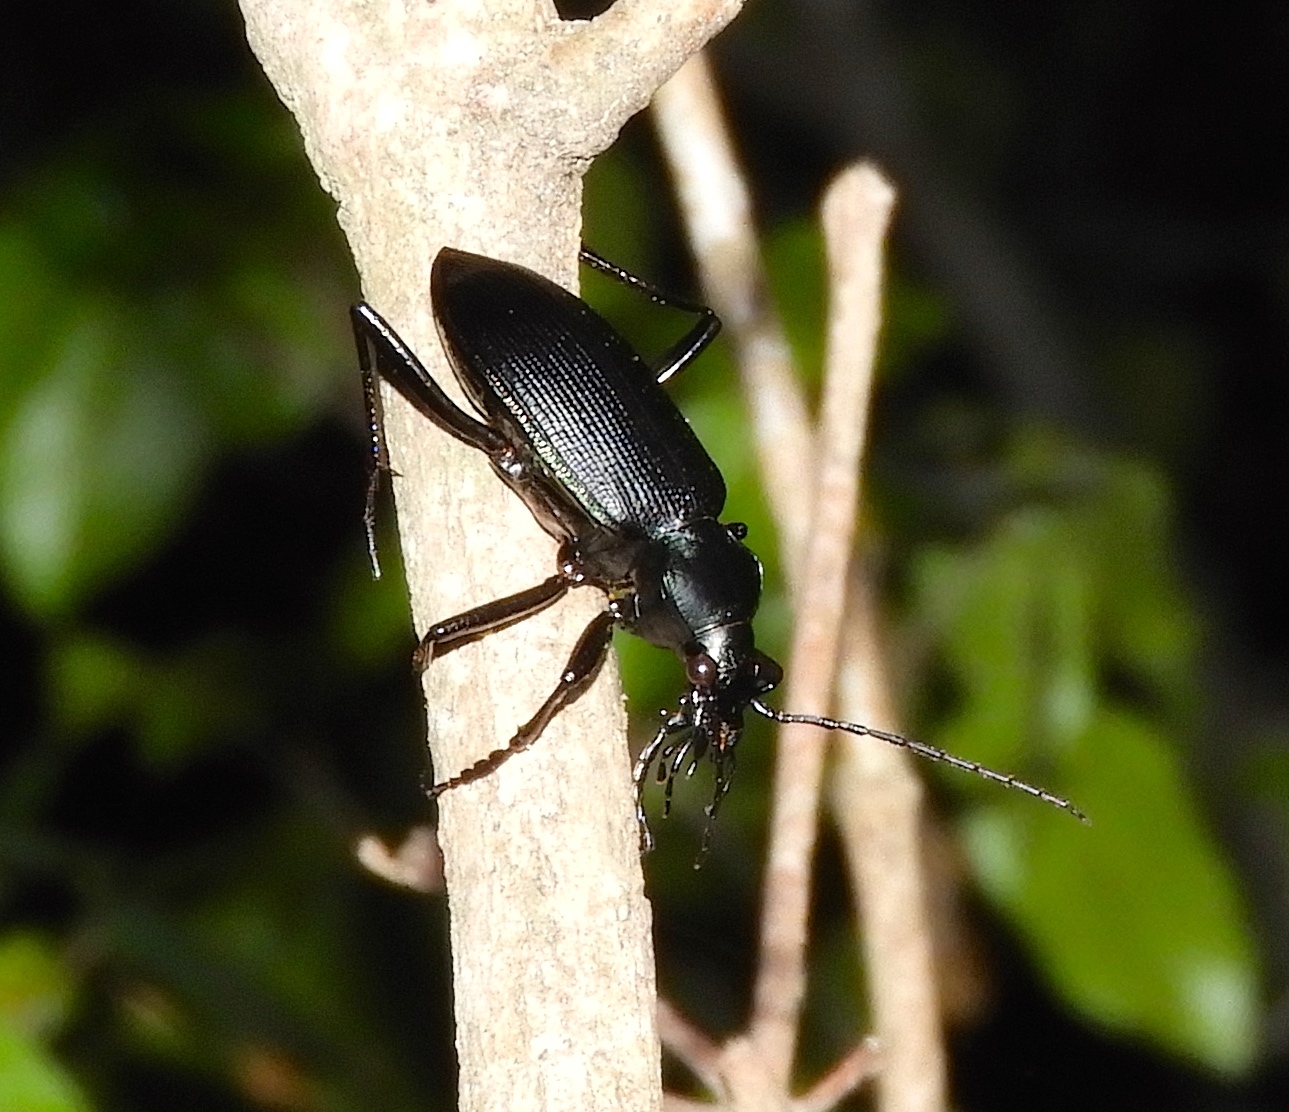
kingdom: Animalia
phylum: Arthropoda
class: Insecta
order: Coleoptera
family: Carabidae
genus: Calosoma
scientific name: Calosoma
